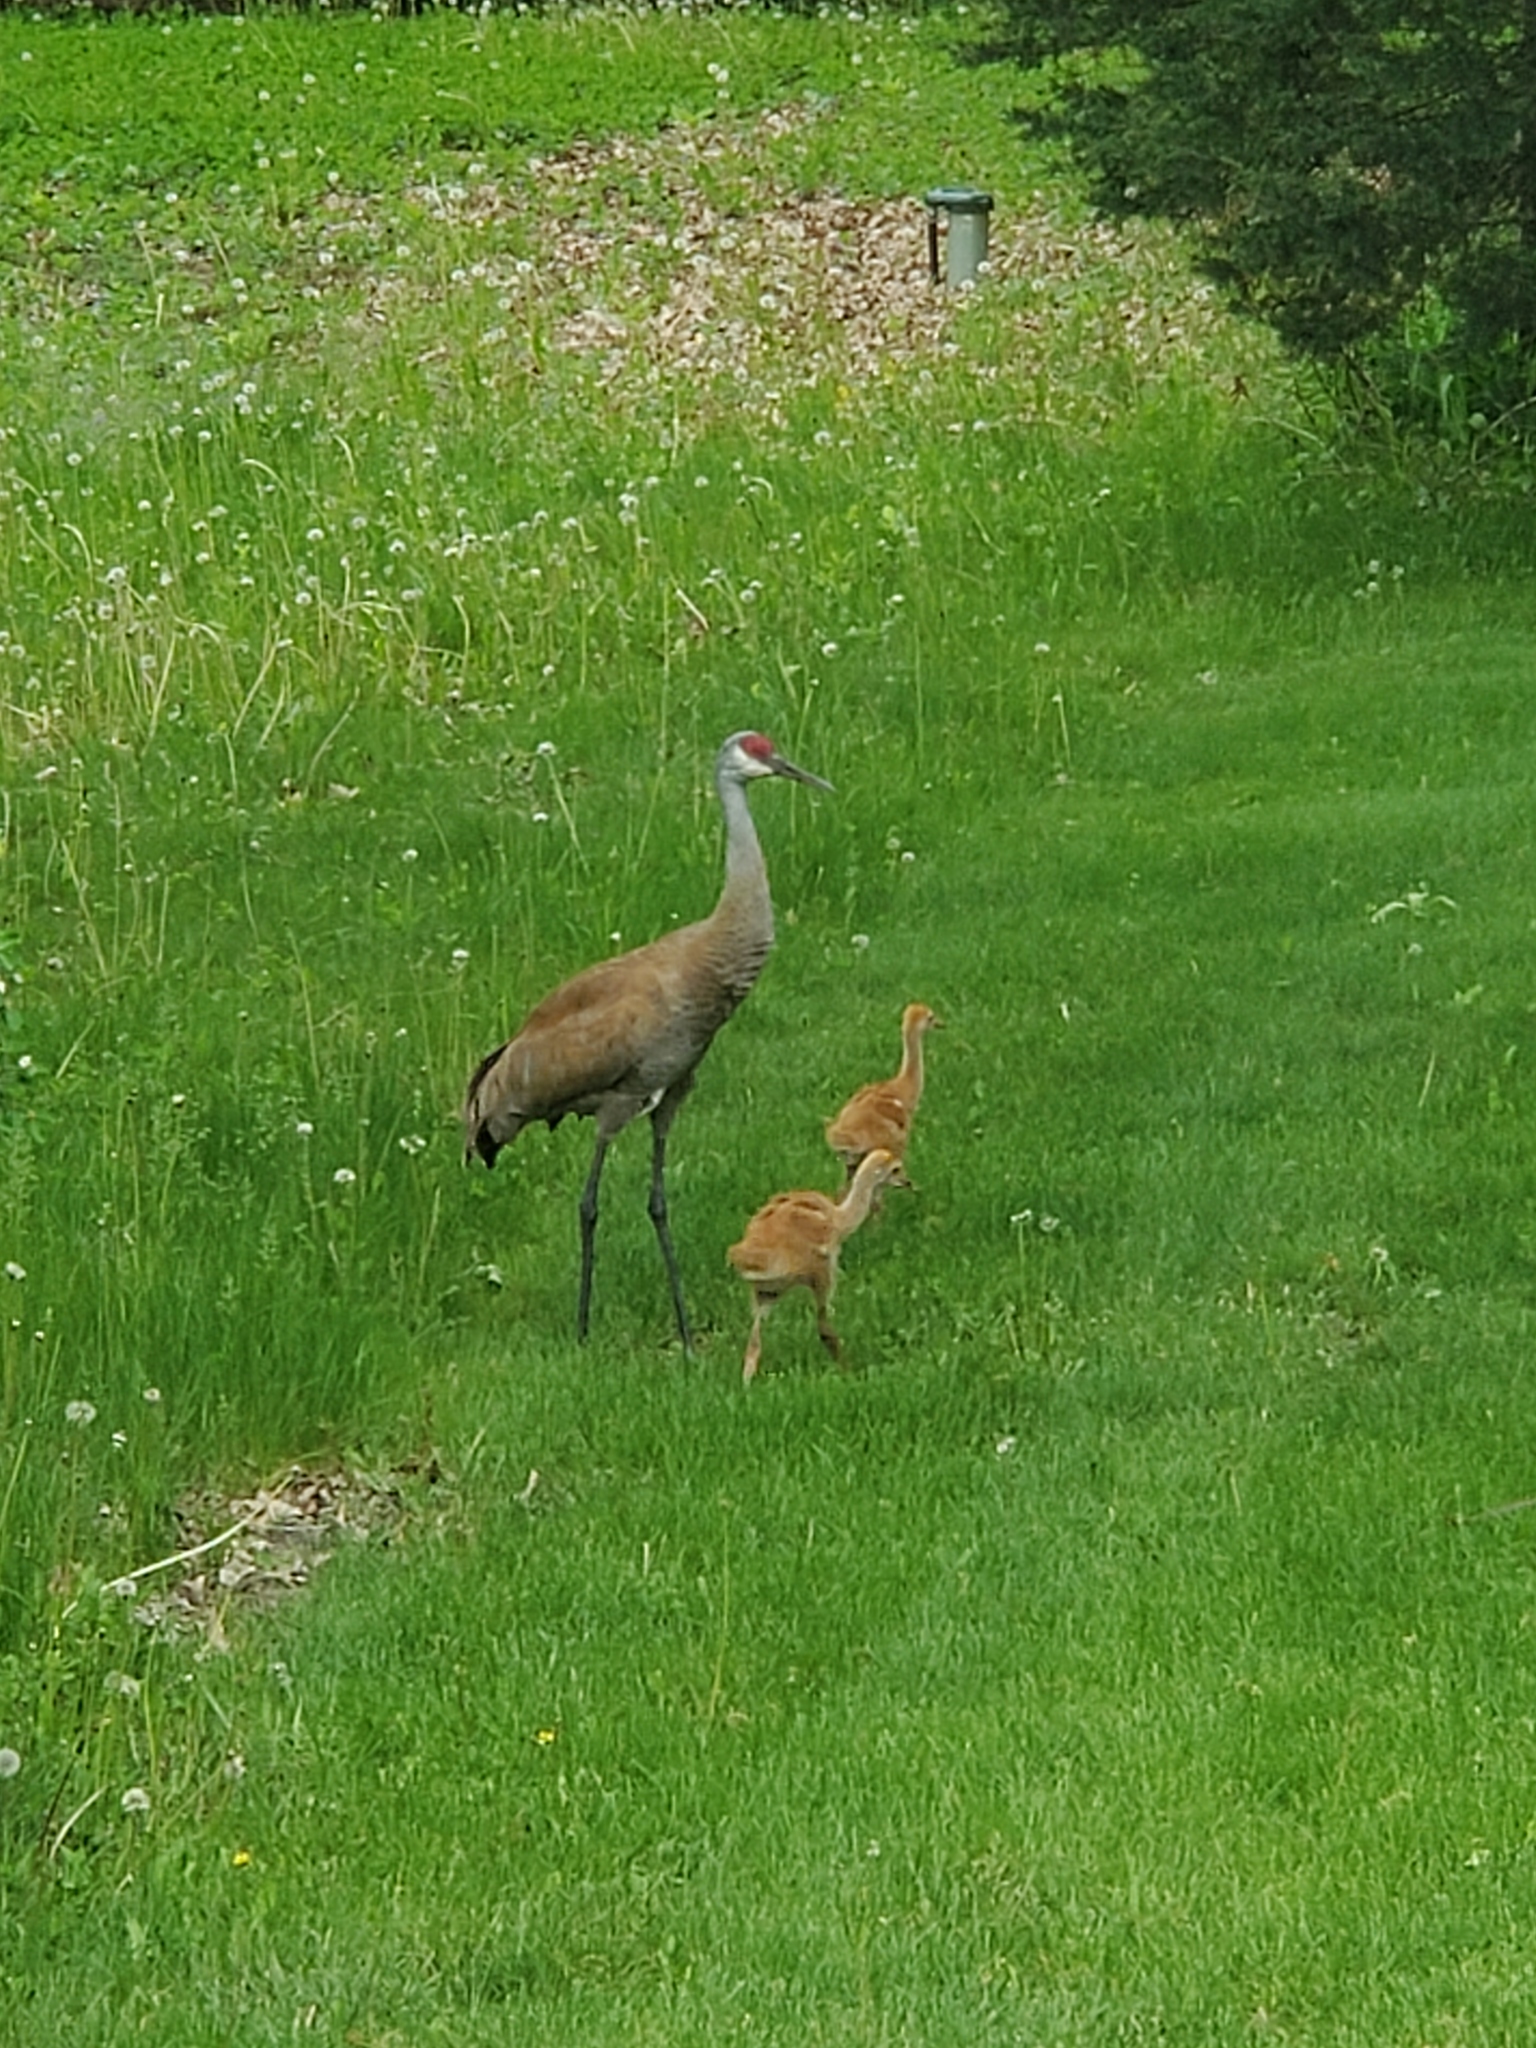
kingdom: Animalia
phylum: Chordata
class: Aves
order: Gruiformes
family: Gruidae
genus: Grus
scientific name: Grus canadensis
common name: Sandhill crane
